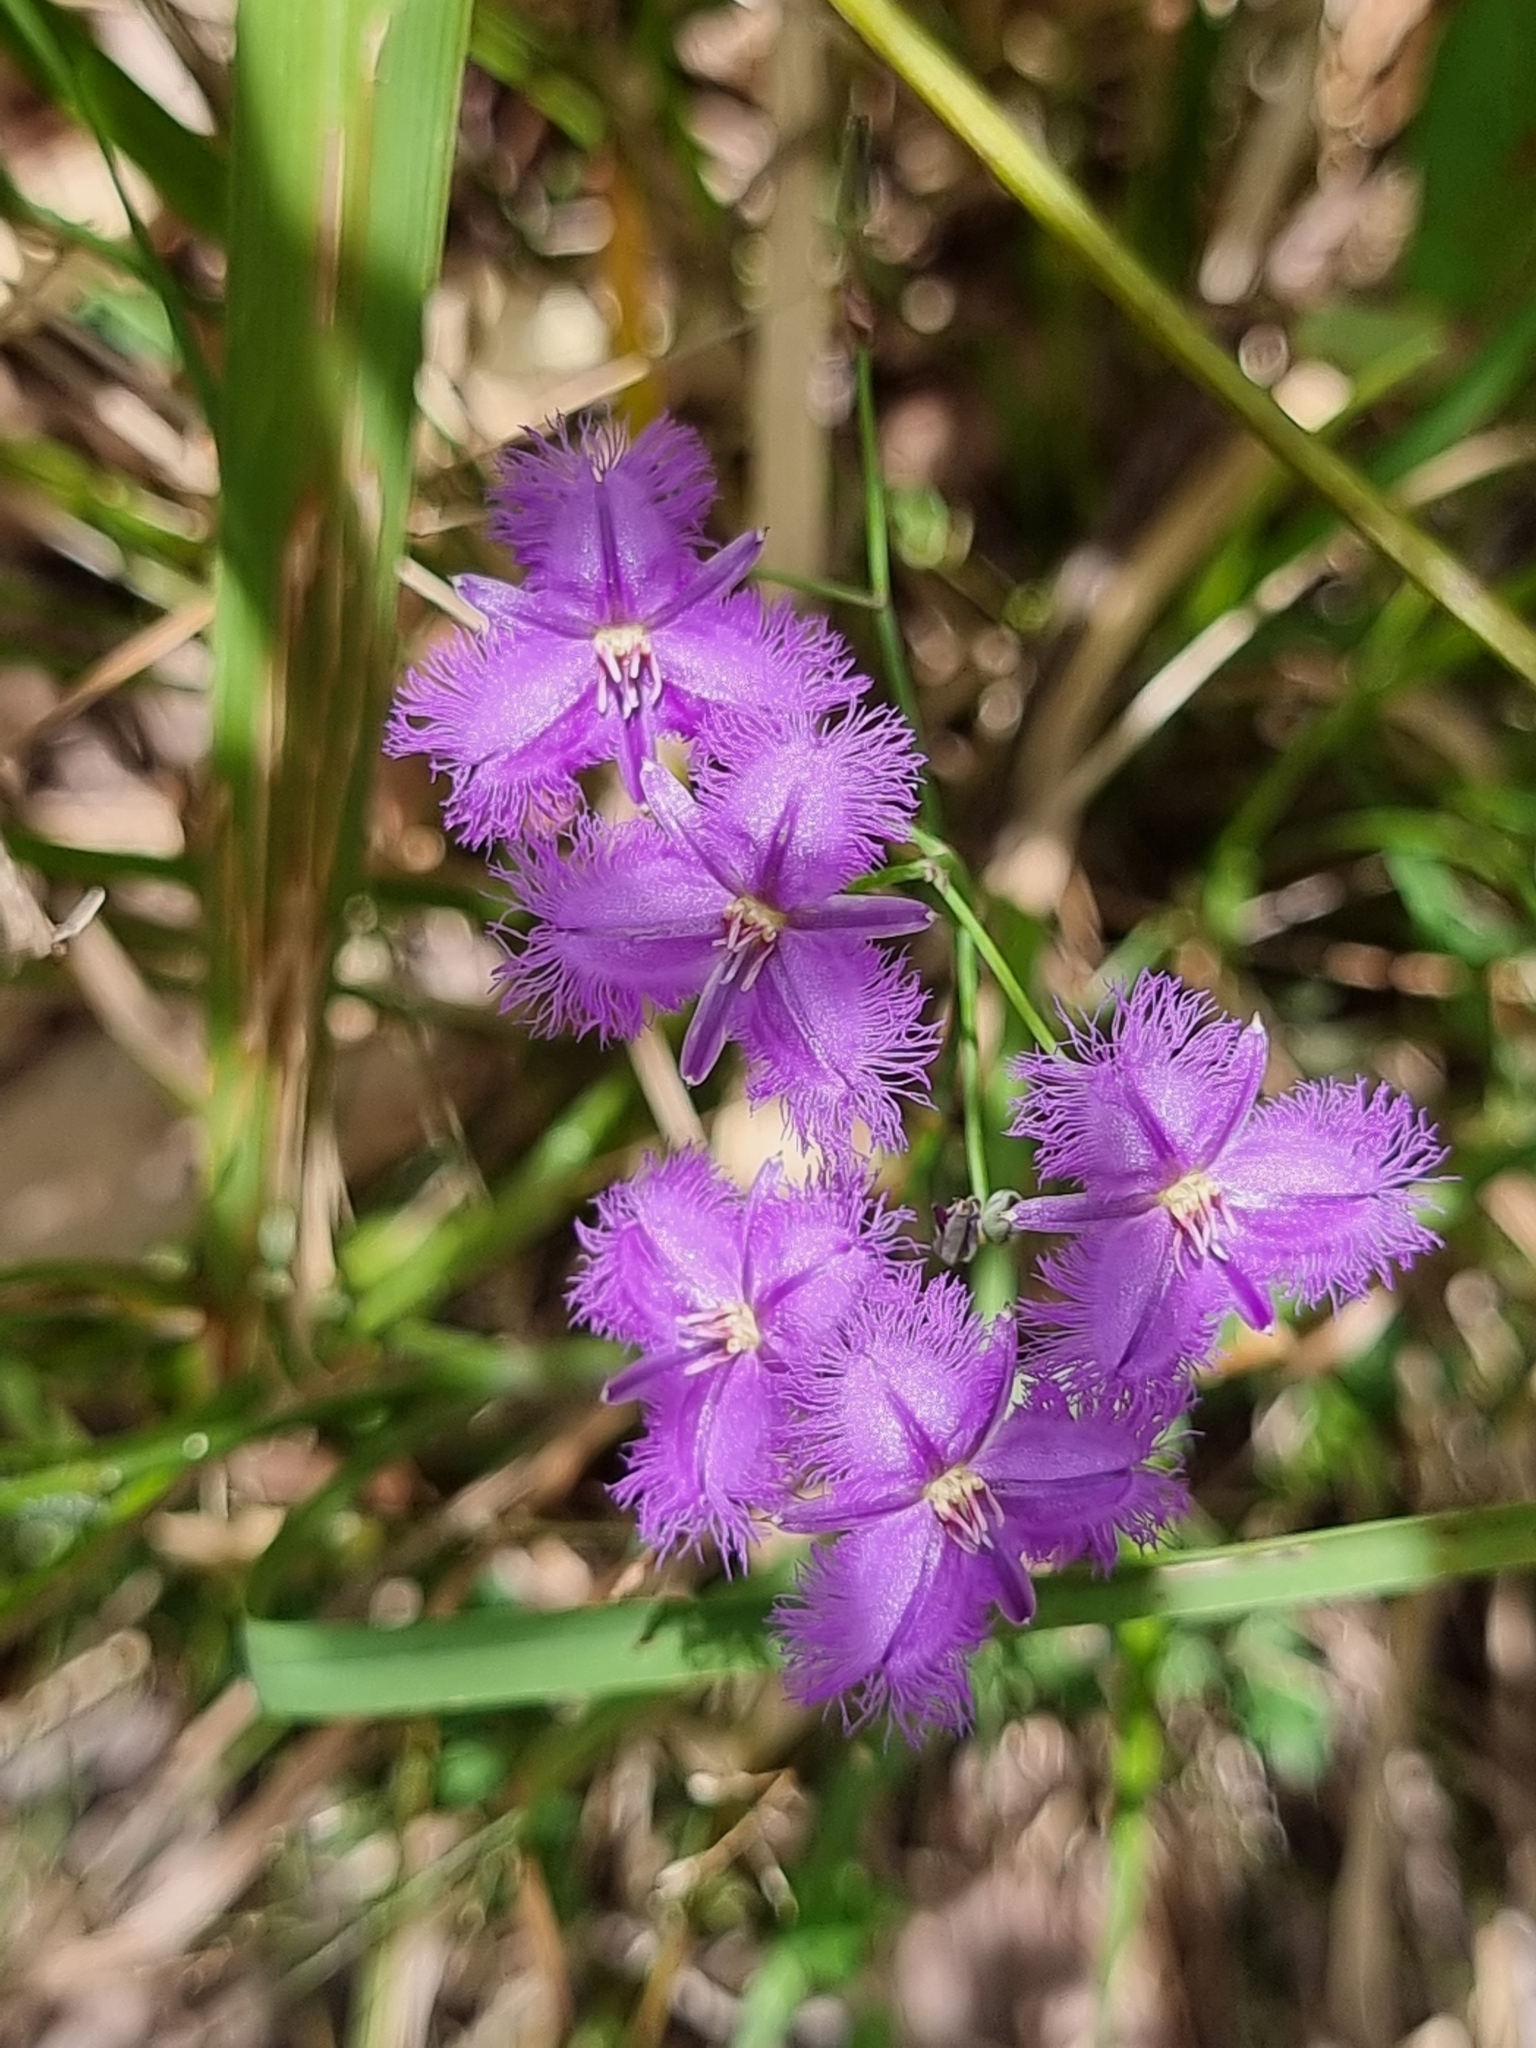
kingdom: Plantae
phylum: Tracheophyta
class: Liliopsida
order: Asparagales
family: Asparagaceae
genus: Thysanotus
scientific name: Thysanotus tuberosus
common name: Common fringed-lily
